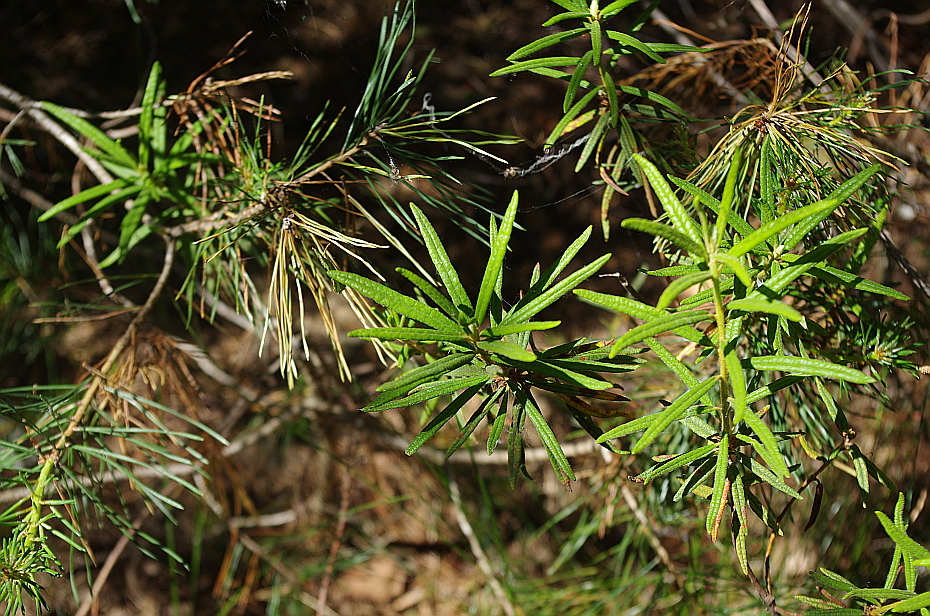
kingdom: Plantae
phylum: Tracheophyta
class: Magnoliopsida
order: Ericales
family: Ericaceae
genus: Rhododendron
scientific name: Rhododendron tomentosum
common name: Marsh labrador tea
